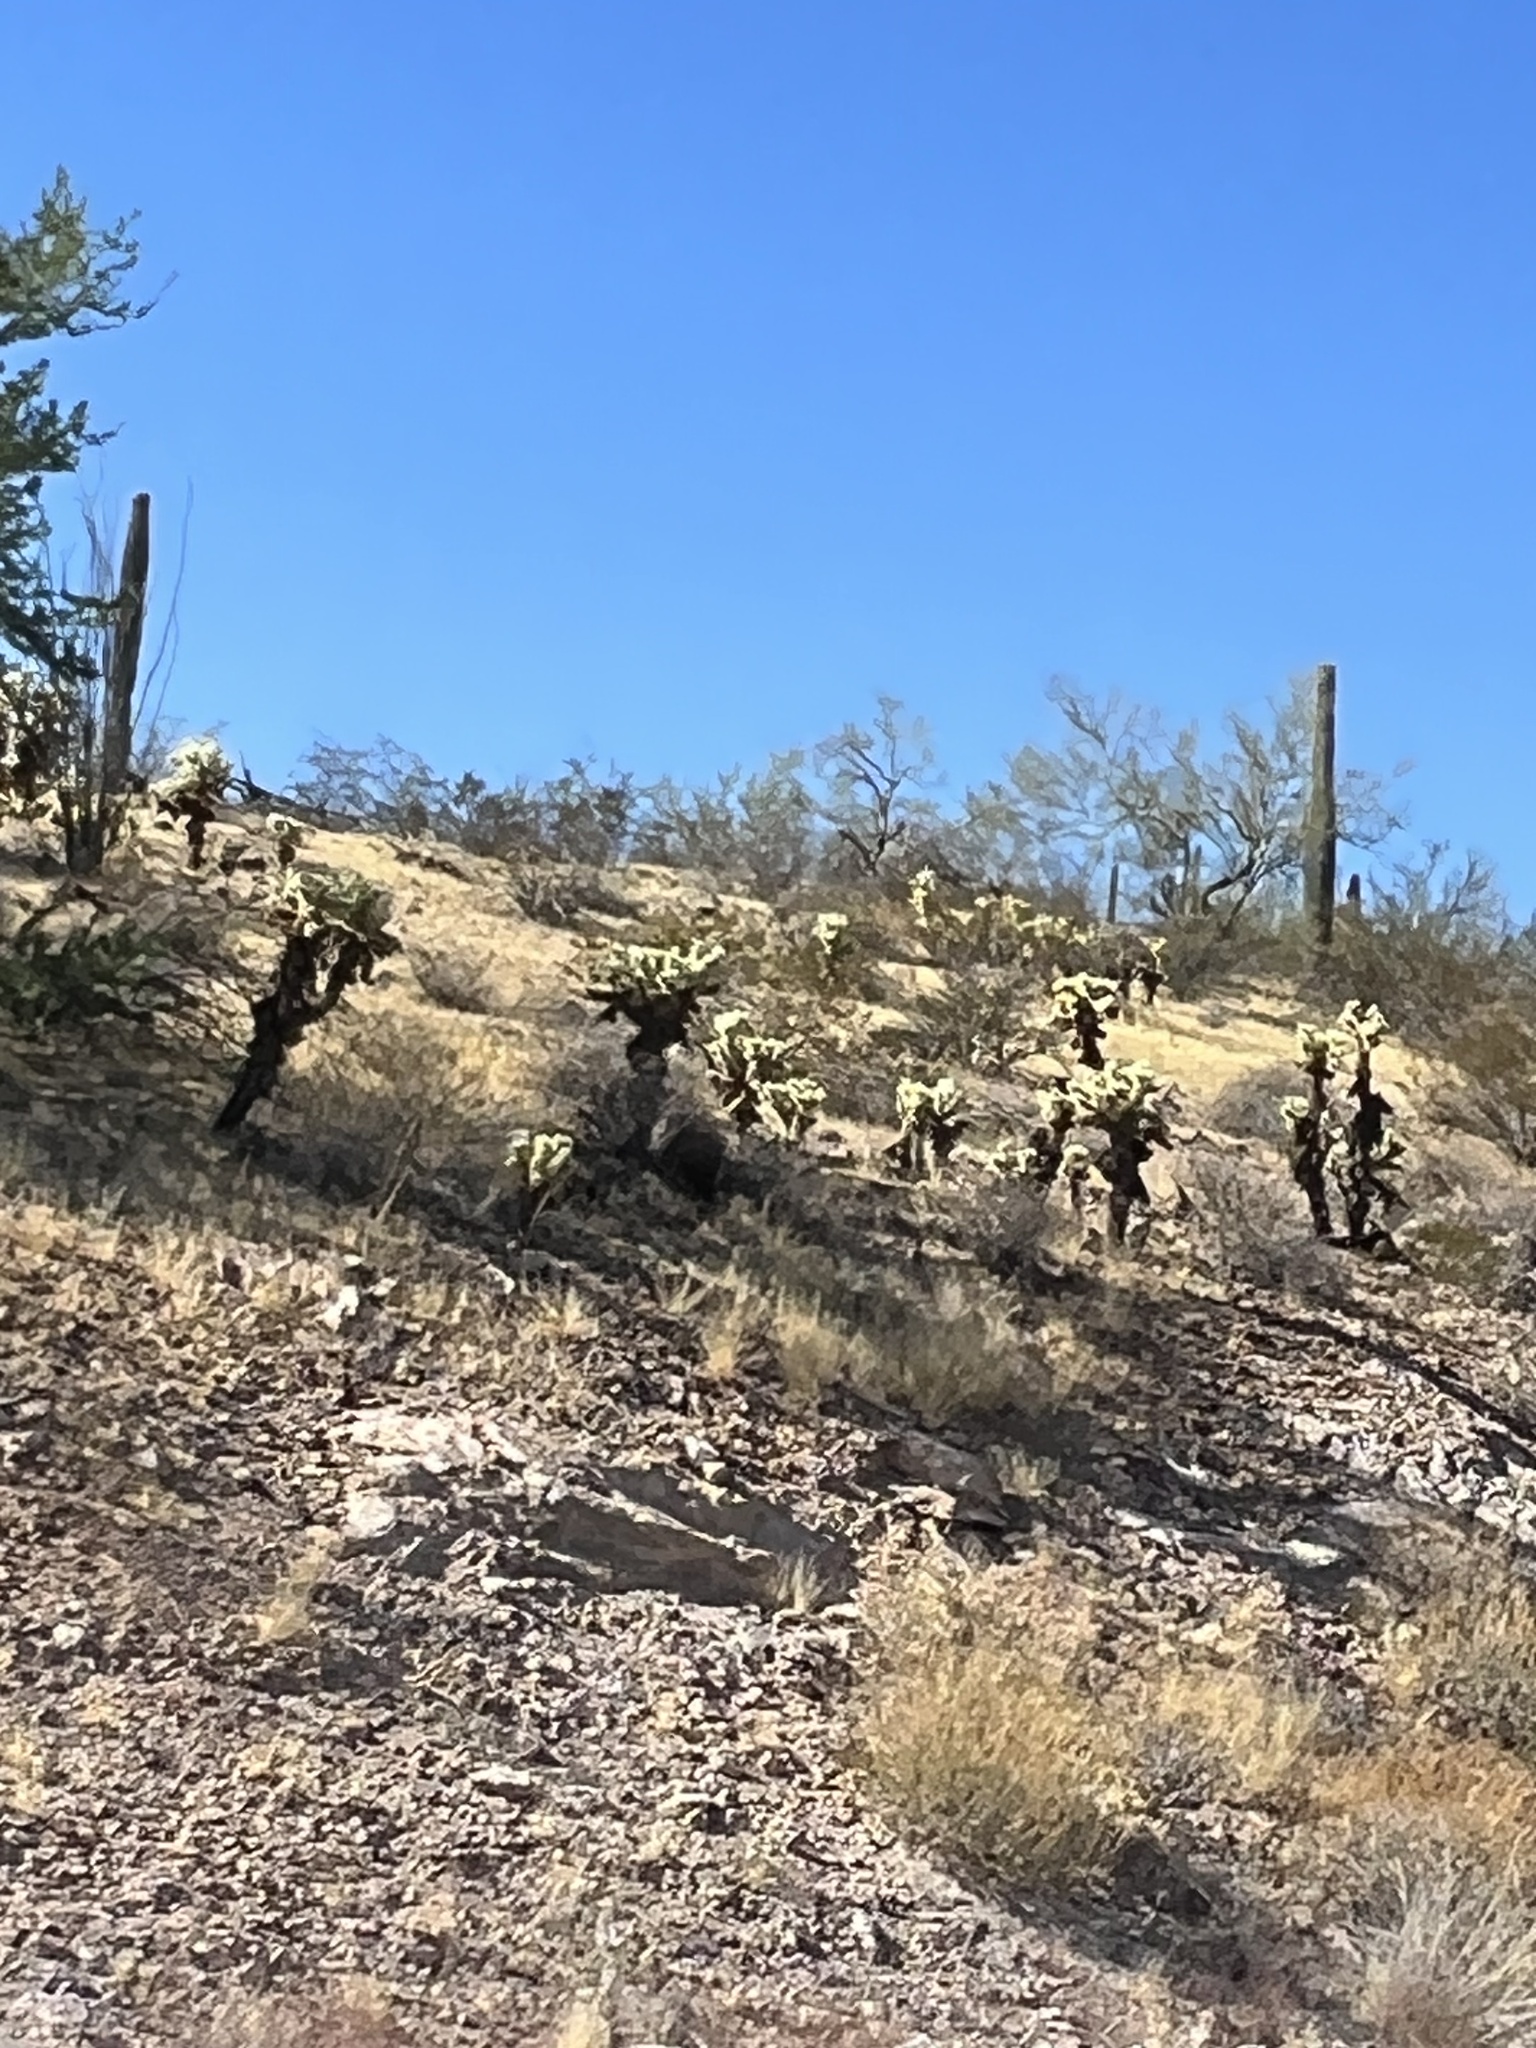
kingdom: Plantae
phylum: Tracheophyta
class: Magnoliopsida
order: Caryophyllales
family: Cactaceae
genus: Cylindropuntia
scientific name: Cylindropuntia fosbergii
